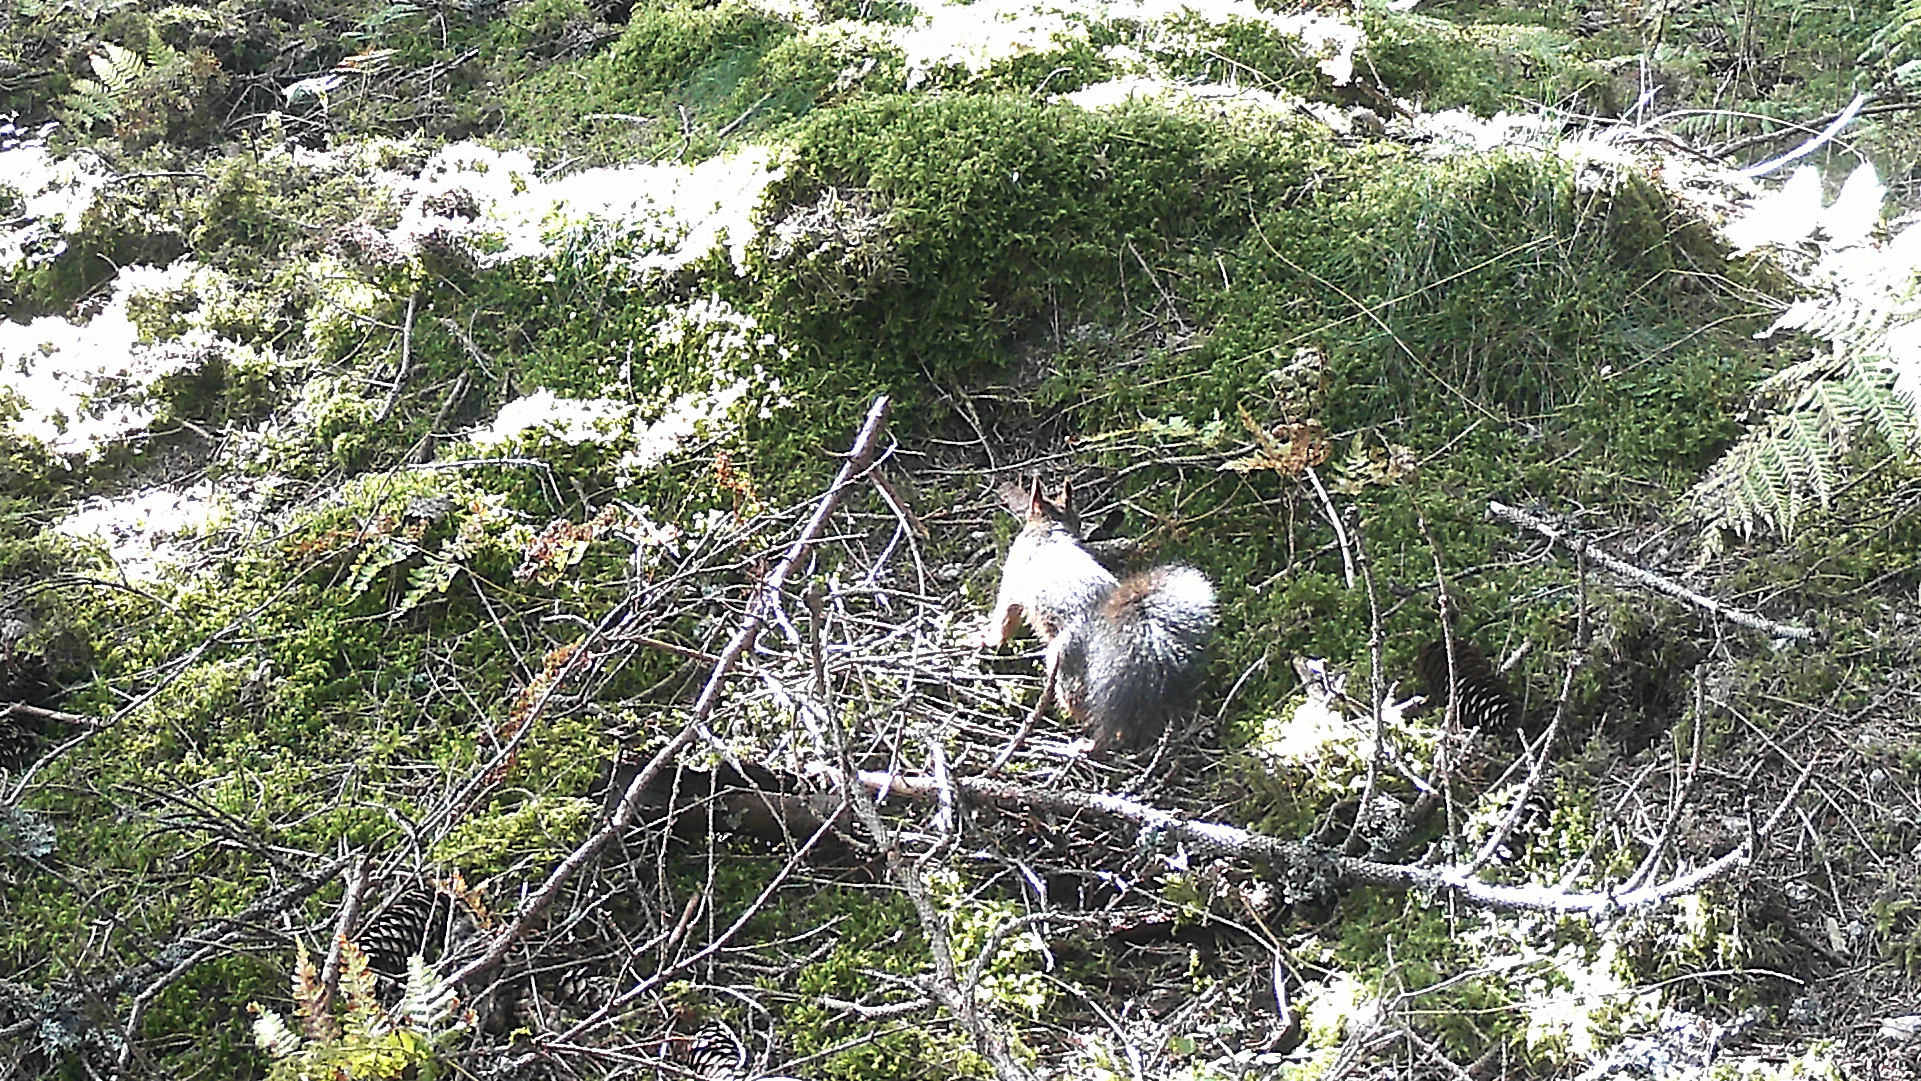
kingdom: Animalia
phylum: Chordata
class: Mammalia
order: Rodentia
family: Sciuridae
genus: Sciurus
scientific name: Sciurus vulgaris
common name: Eurasian red squirrel
